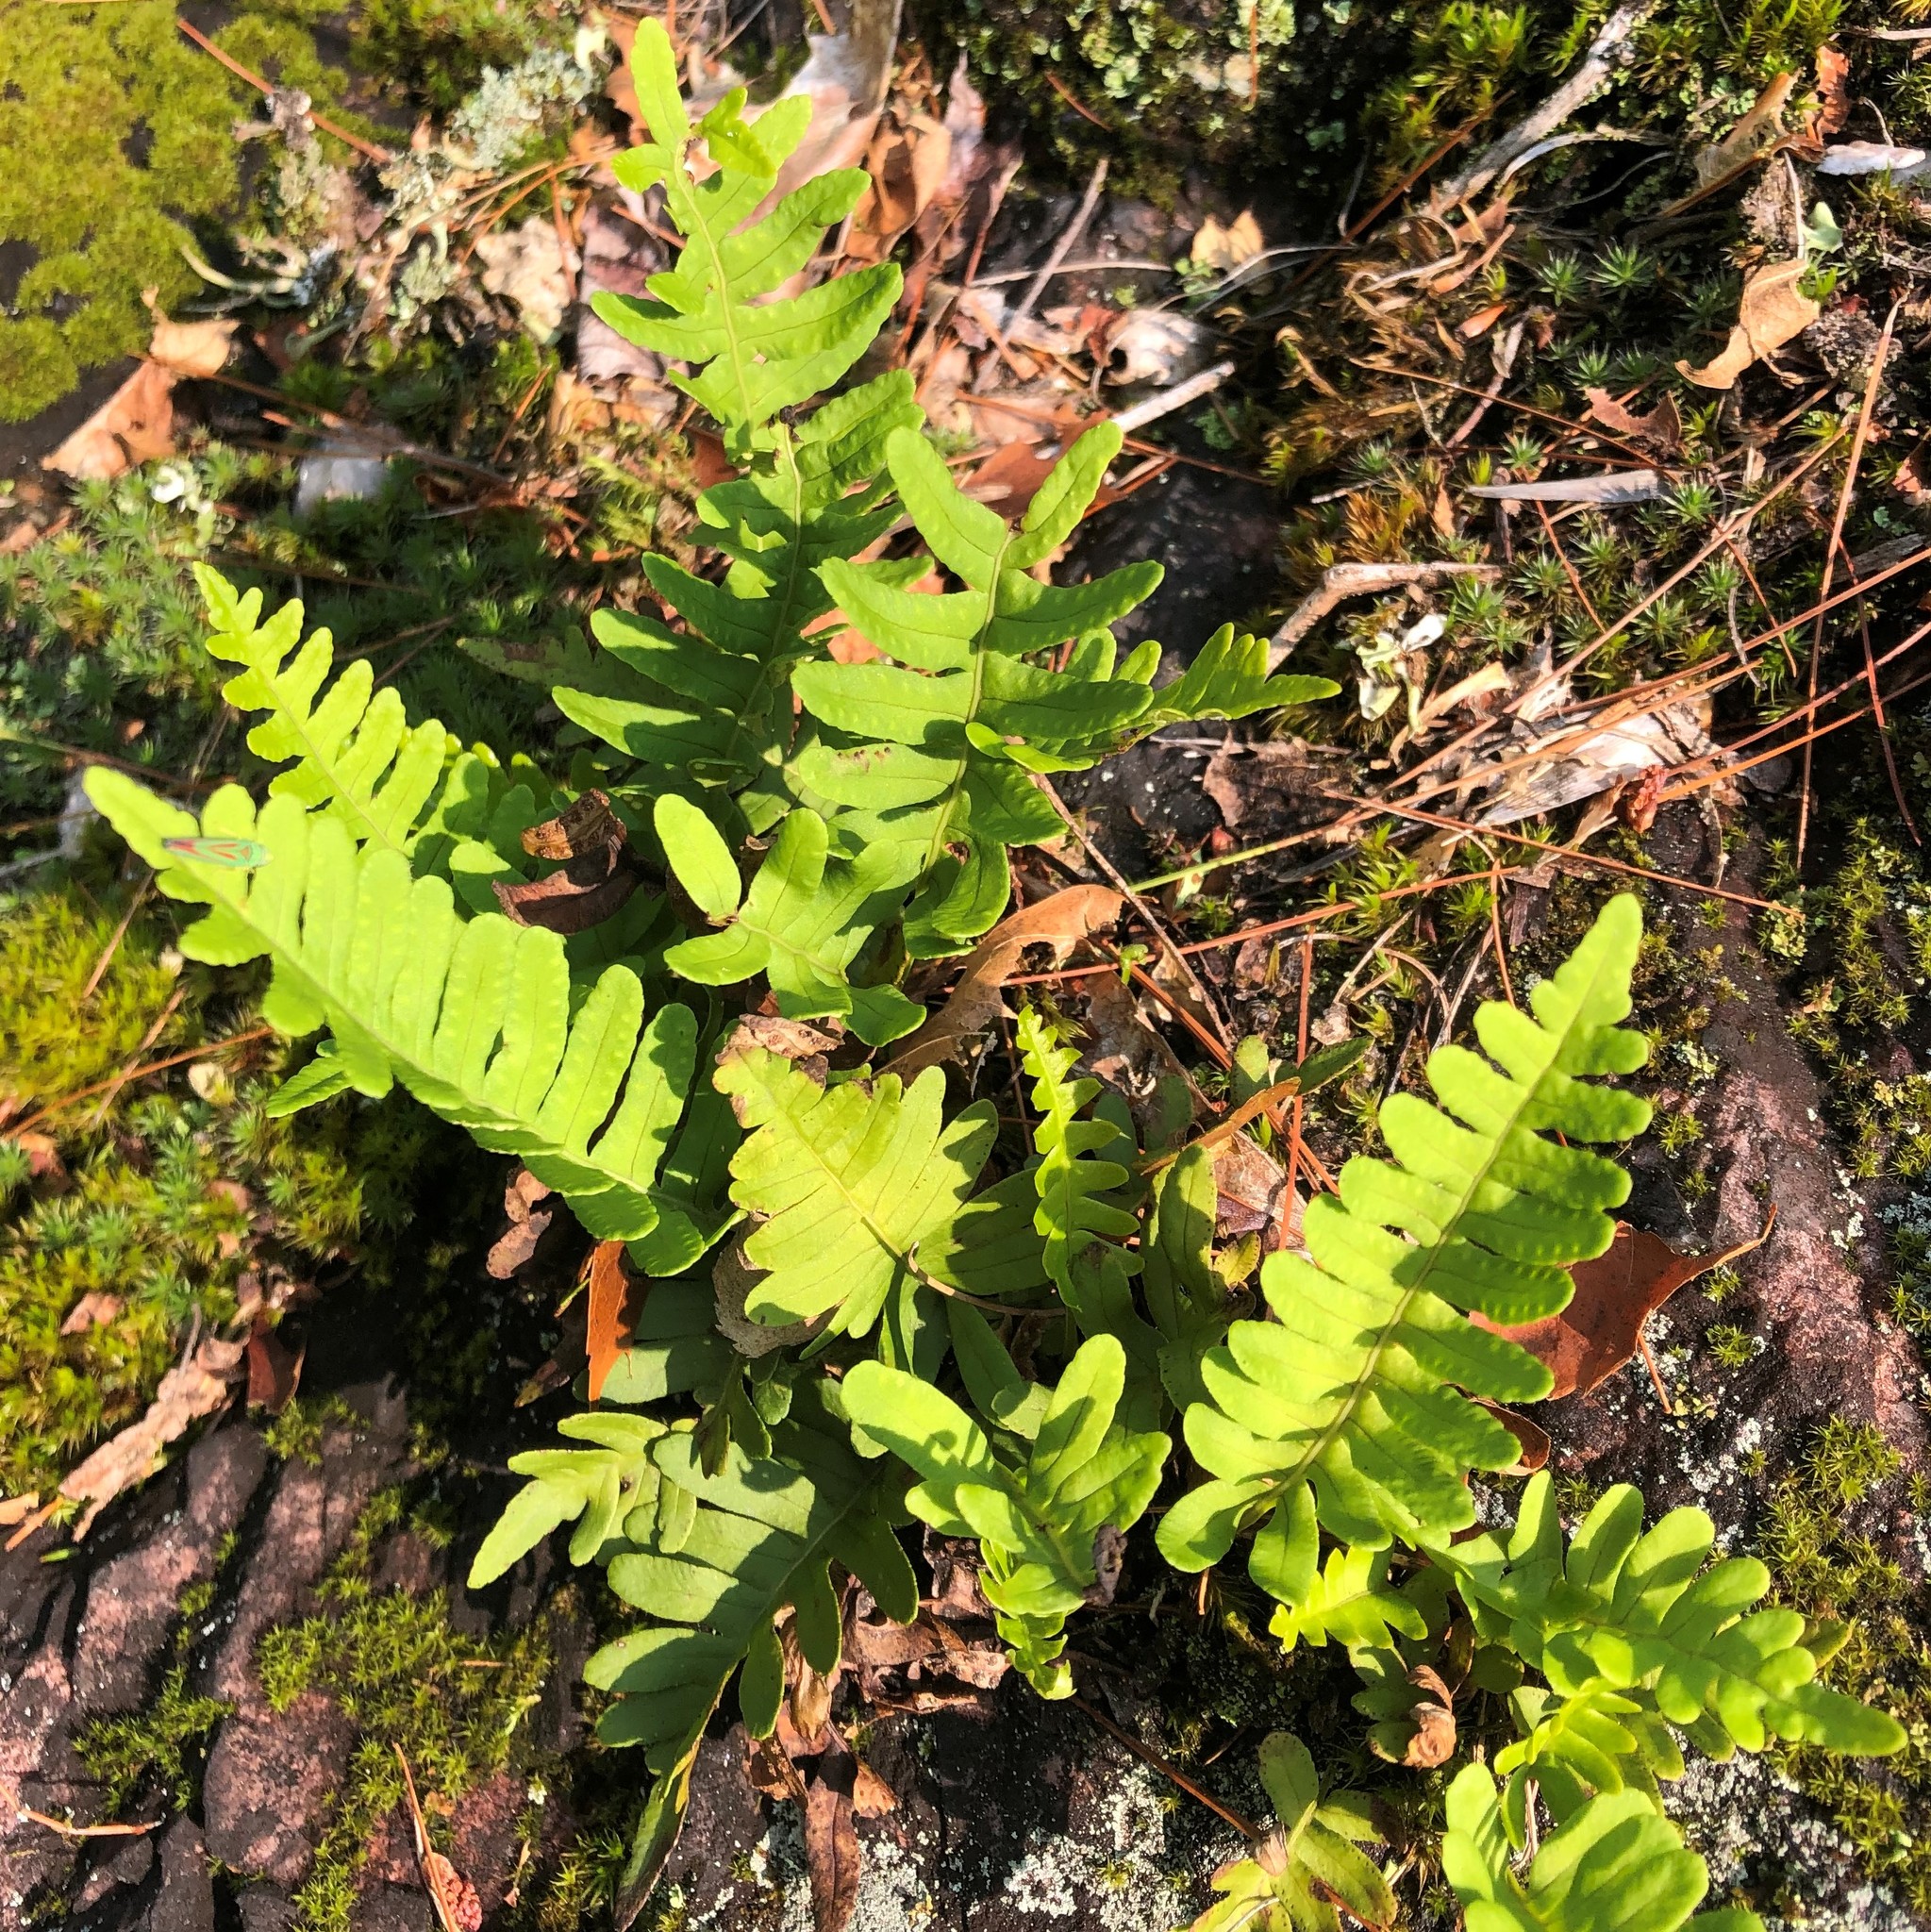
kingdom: Plantae
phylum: Tracheophyta
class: Polypodiopsida
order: Polypodiales
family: Polypodiaceae
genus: Polypodium
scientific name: Polypodium virginianum
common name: American wall fern
